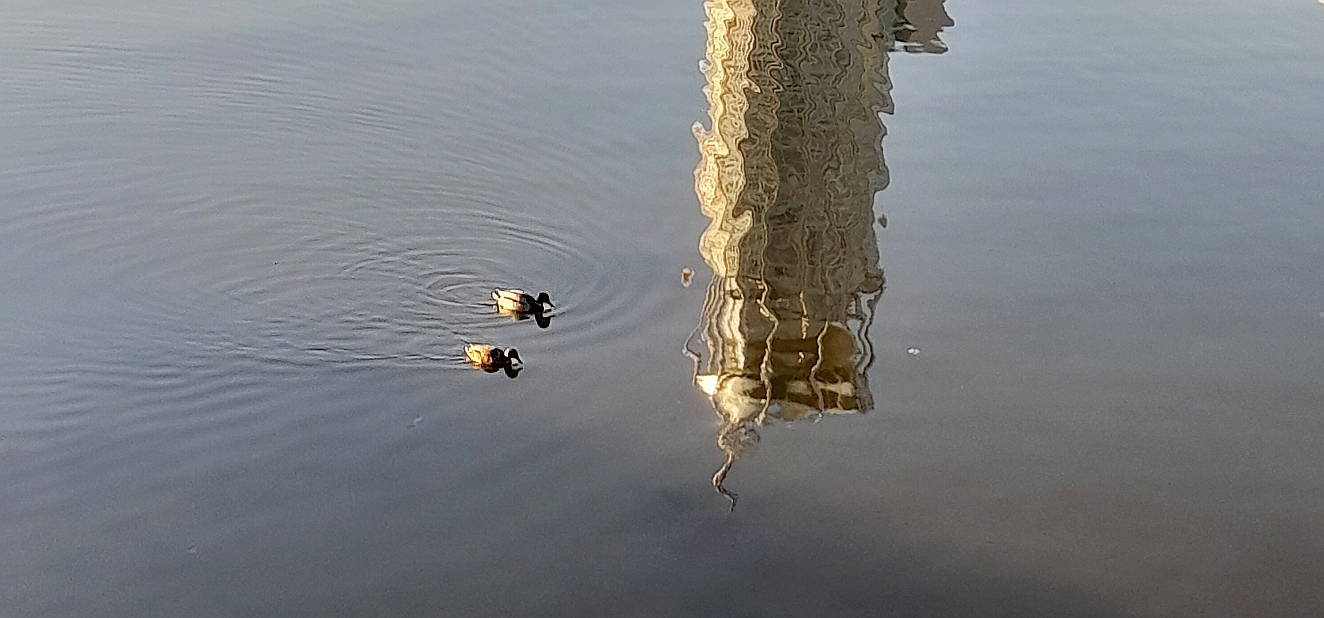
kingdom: Animalia
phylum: Chordata
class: Aves
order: Anseriformes
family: Anatidae
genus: Anas
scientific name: Anas platyrhynchos
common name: Mallard
